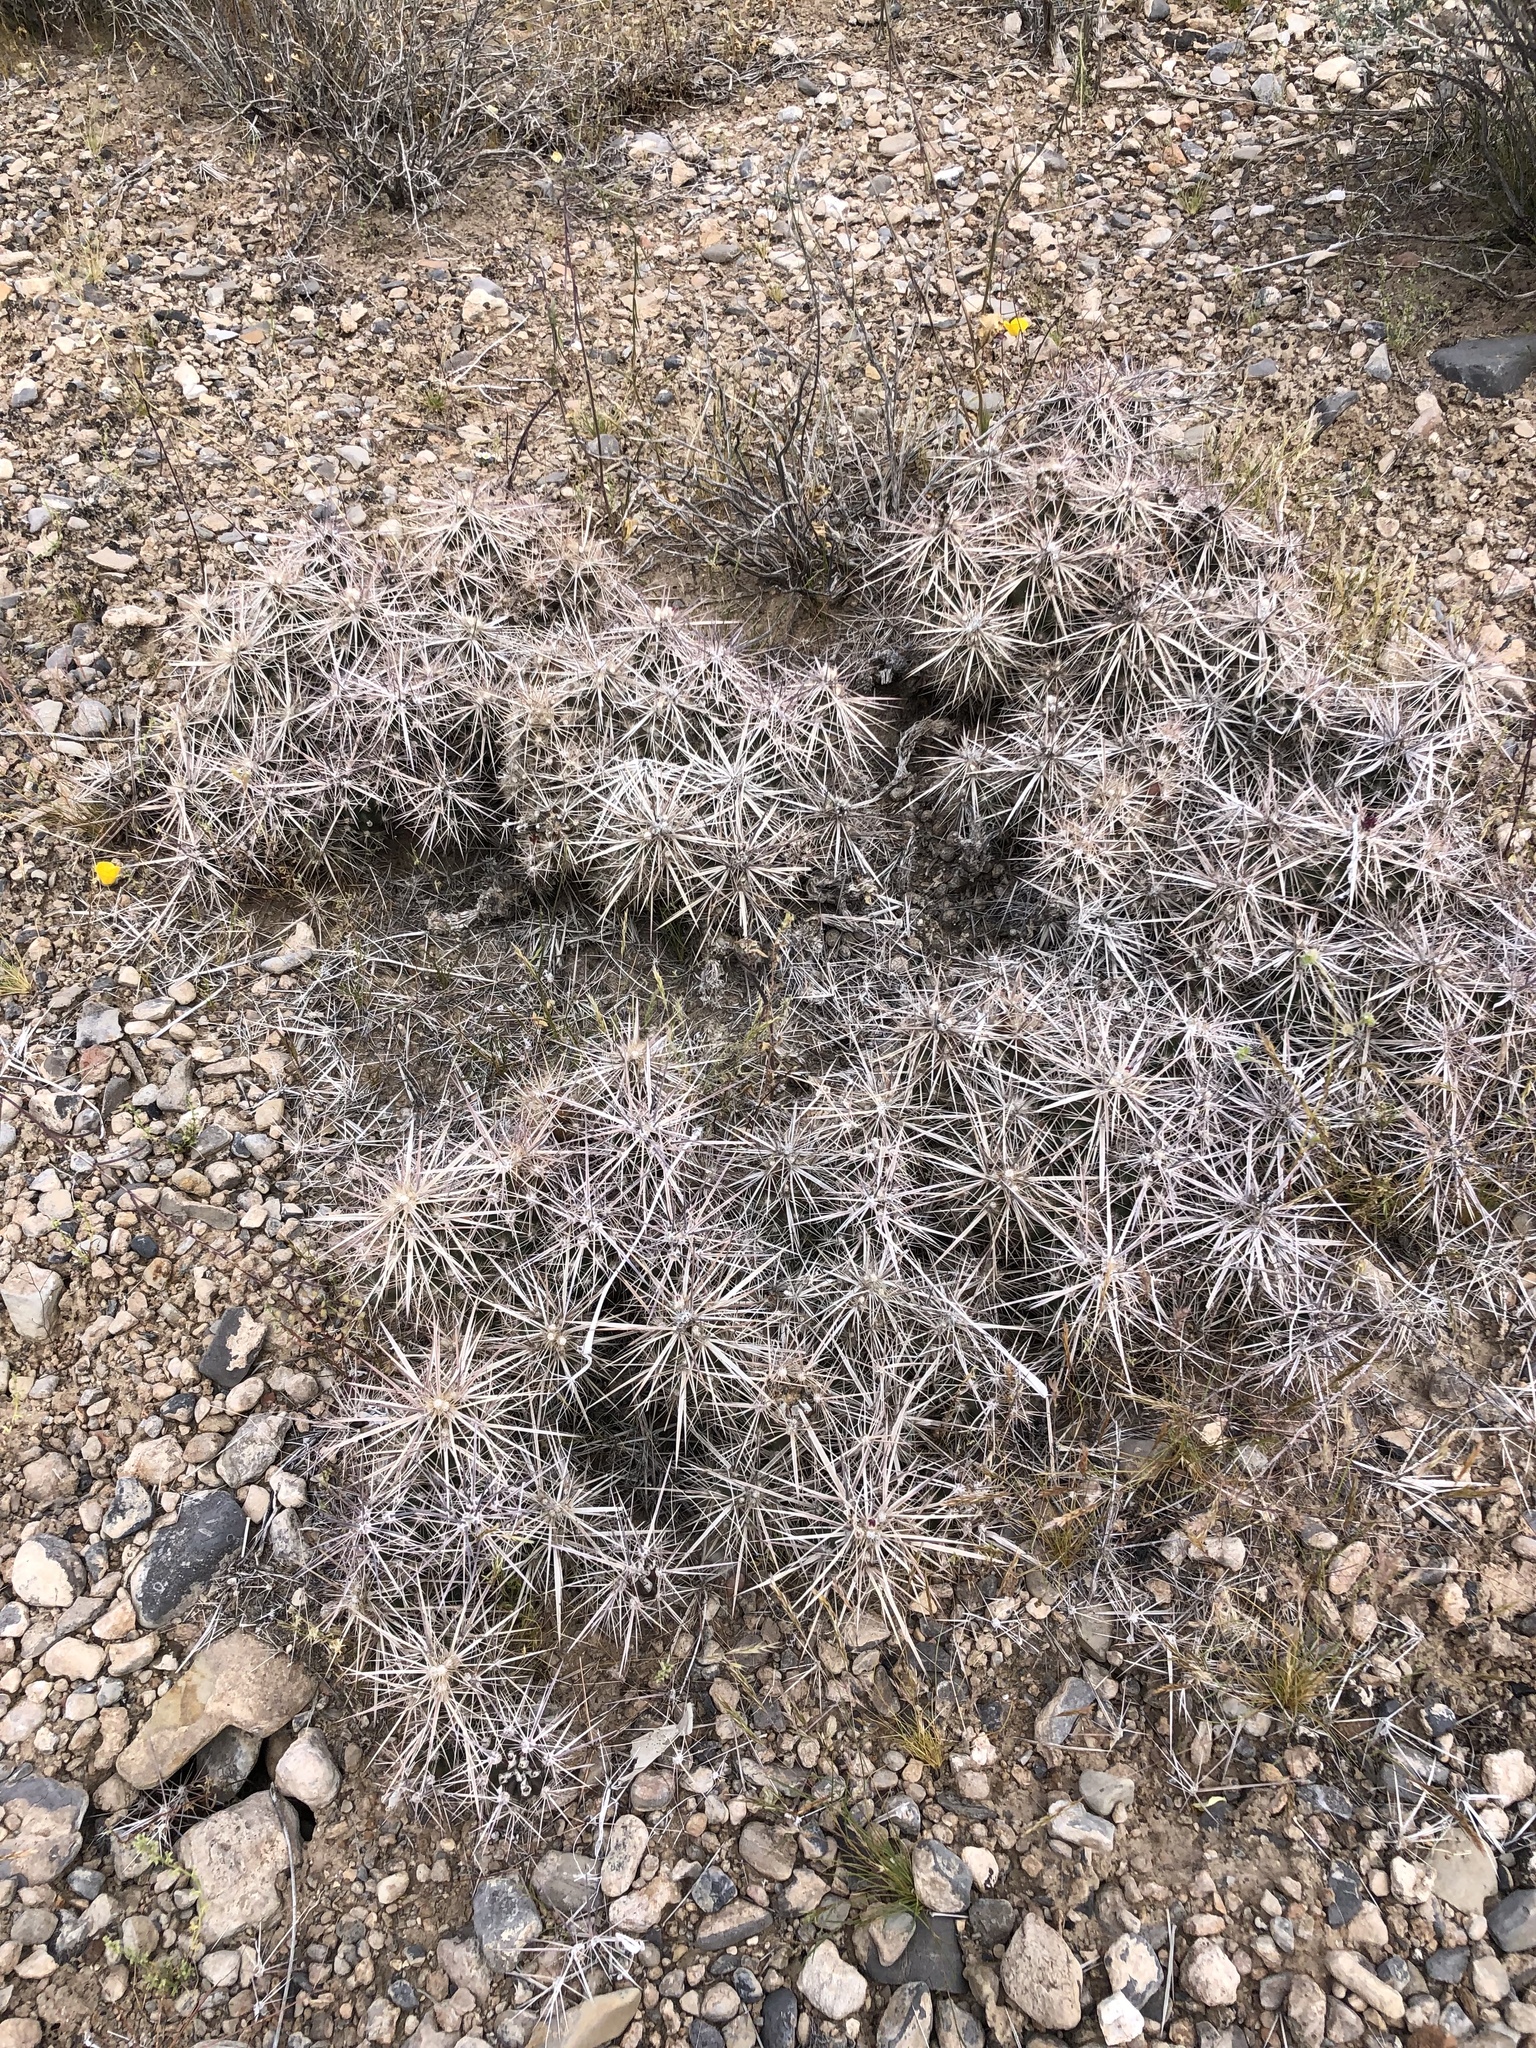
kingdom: Plantae
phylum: Tracheophyta
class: Magnoliopsida
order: Caryophyllales
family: Cactaceae
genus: Grusonia
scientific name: Grusonia parishiorum
